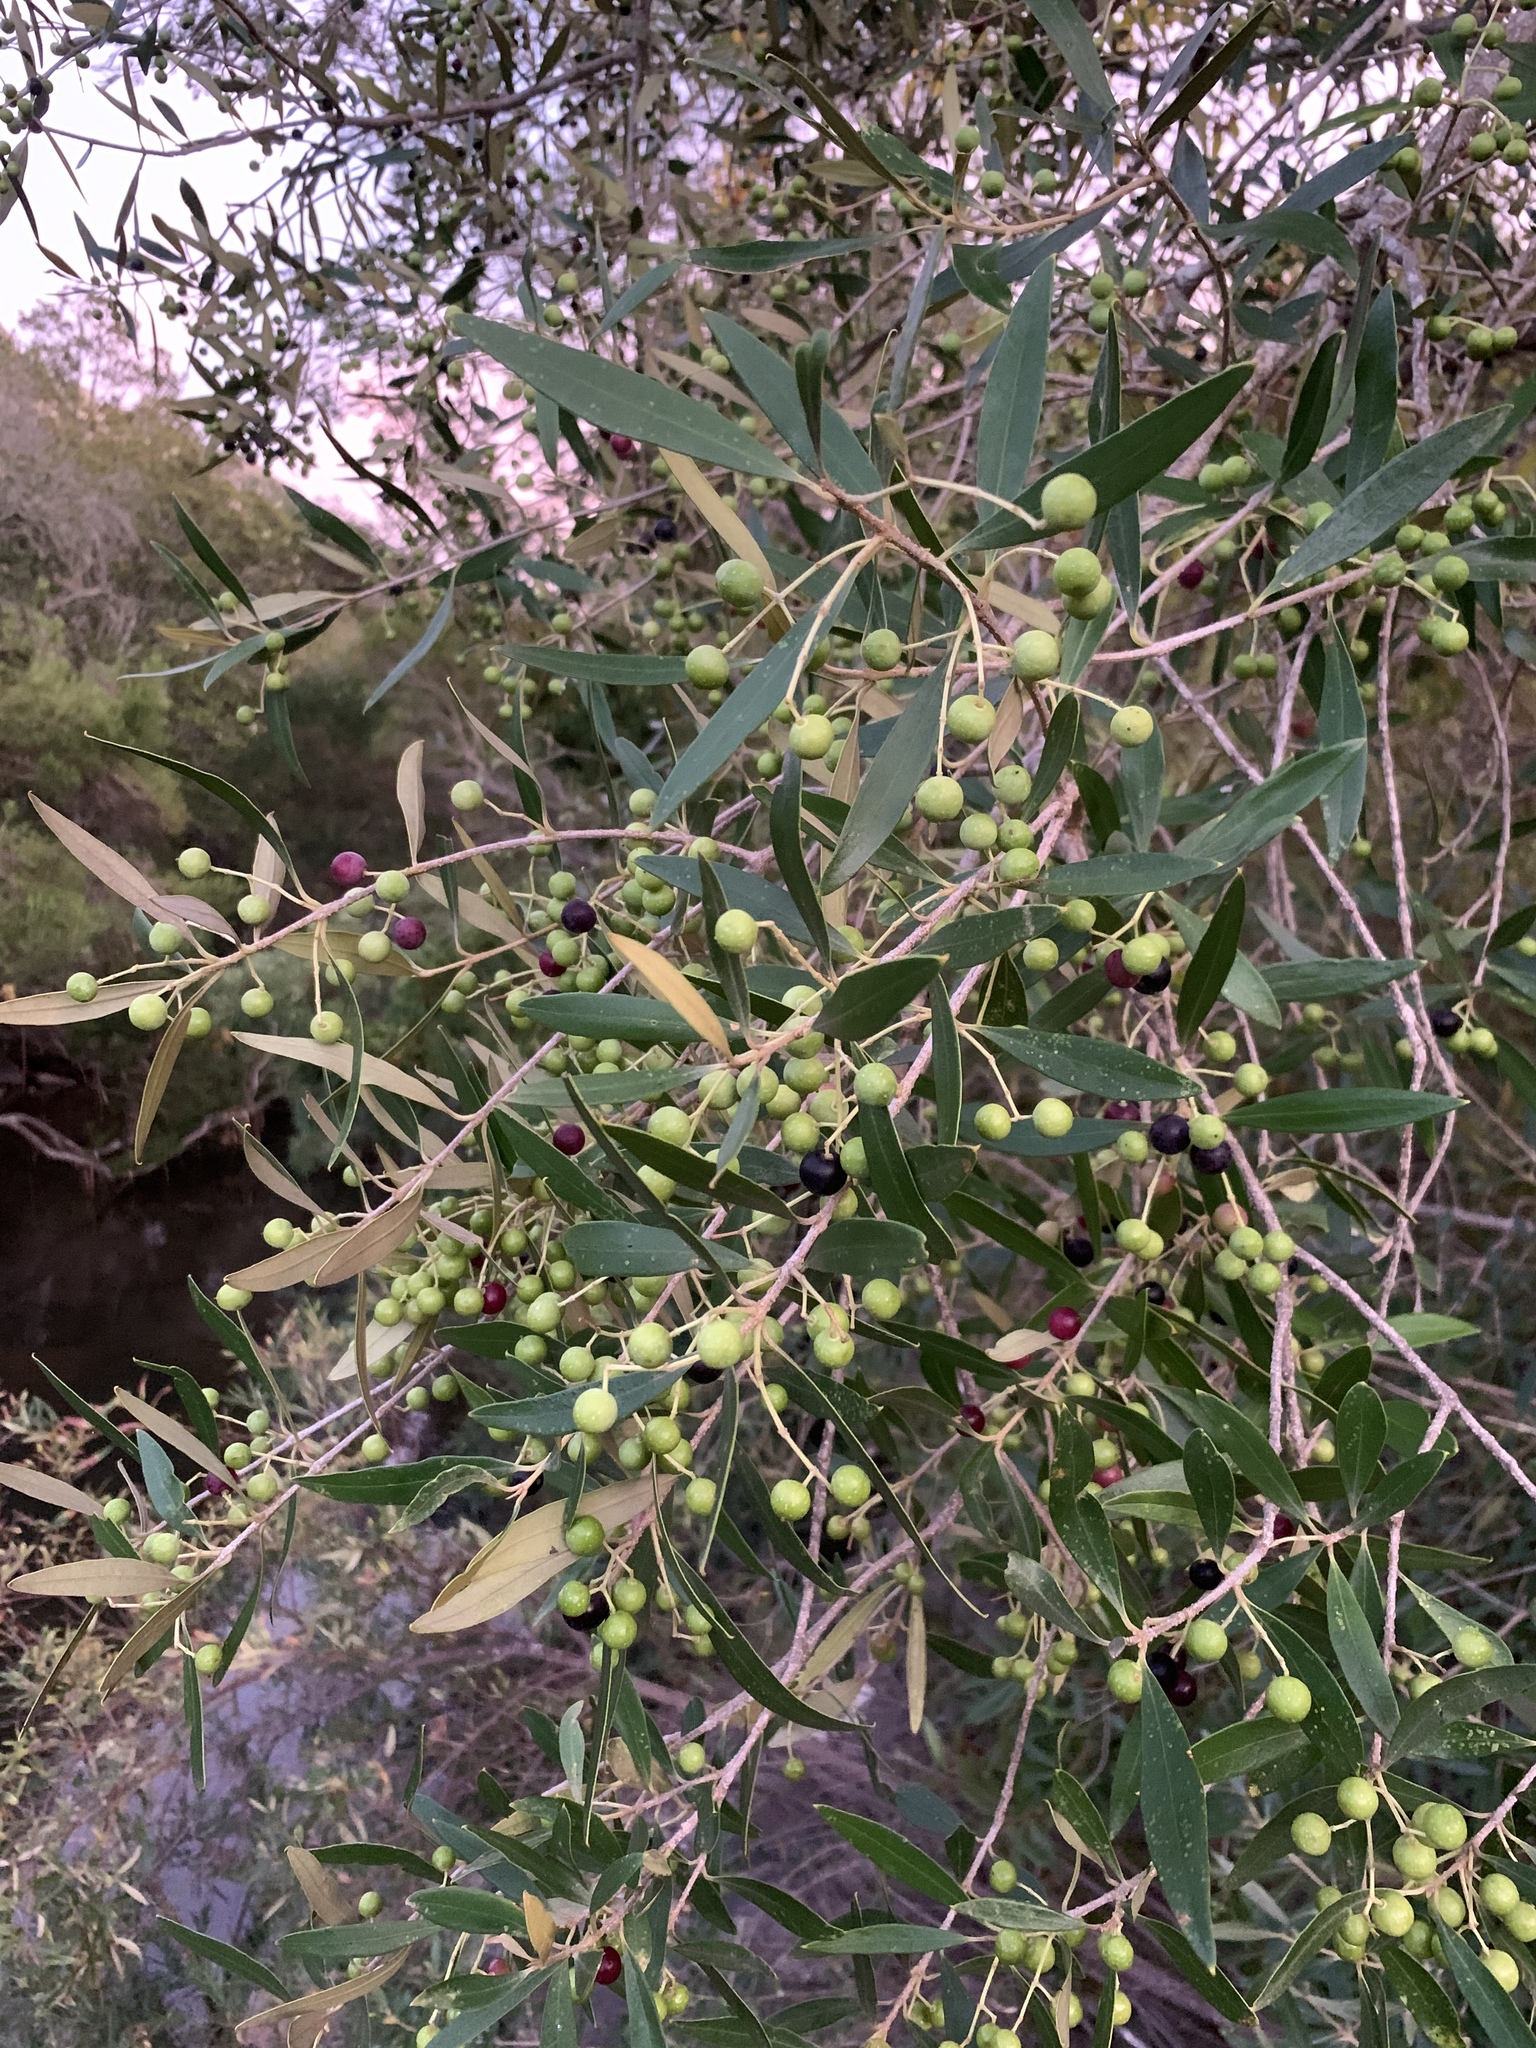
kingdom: Plantae
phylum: Tracheophyta
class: Magnoliopsida
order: Lamiales
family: Oleaceae
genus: Olea
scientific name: Olea europaea
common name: Olive
